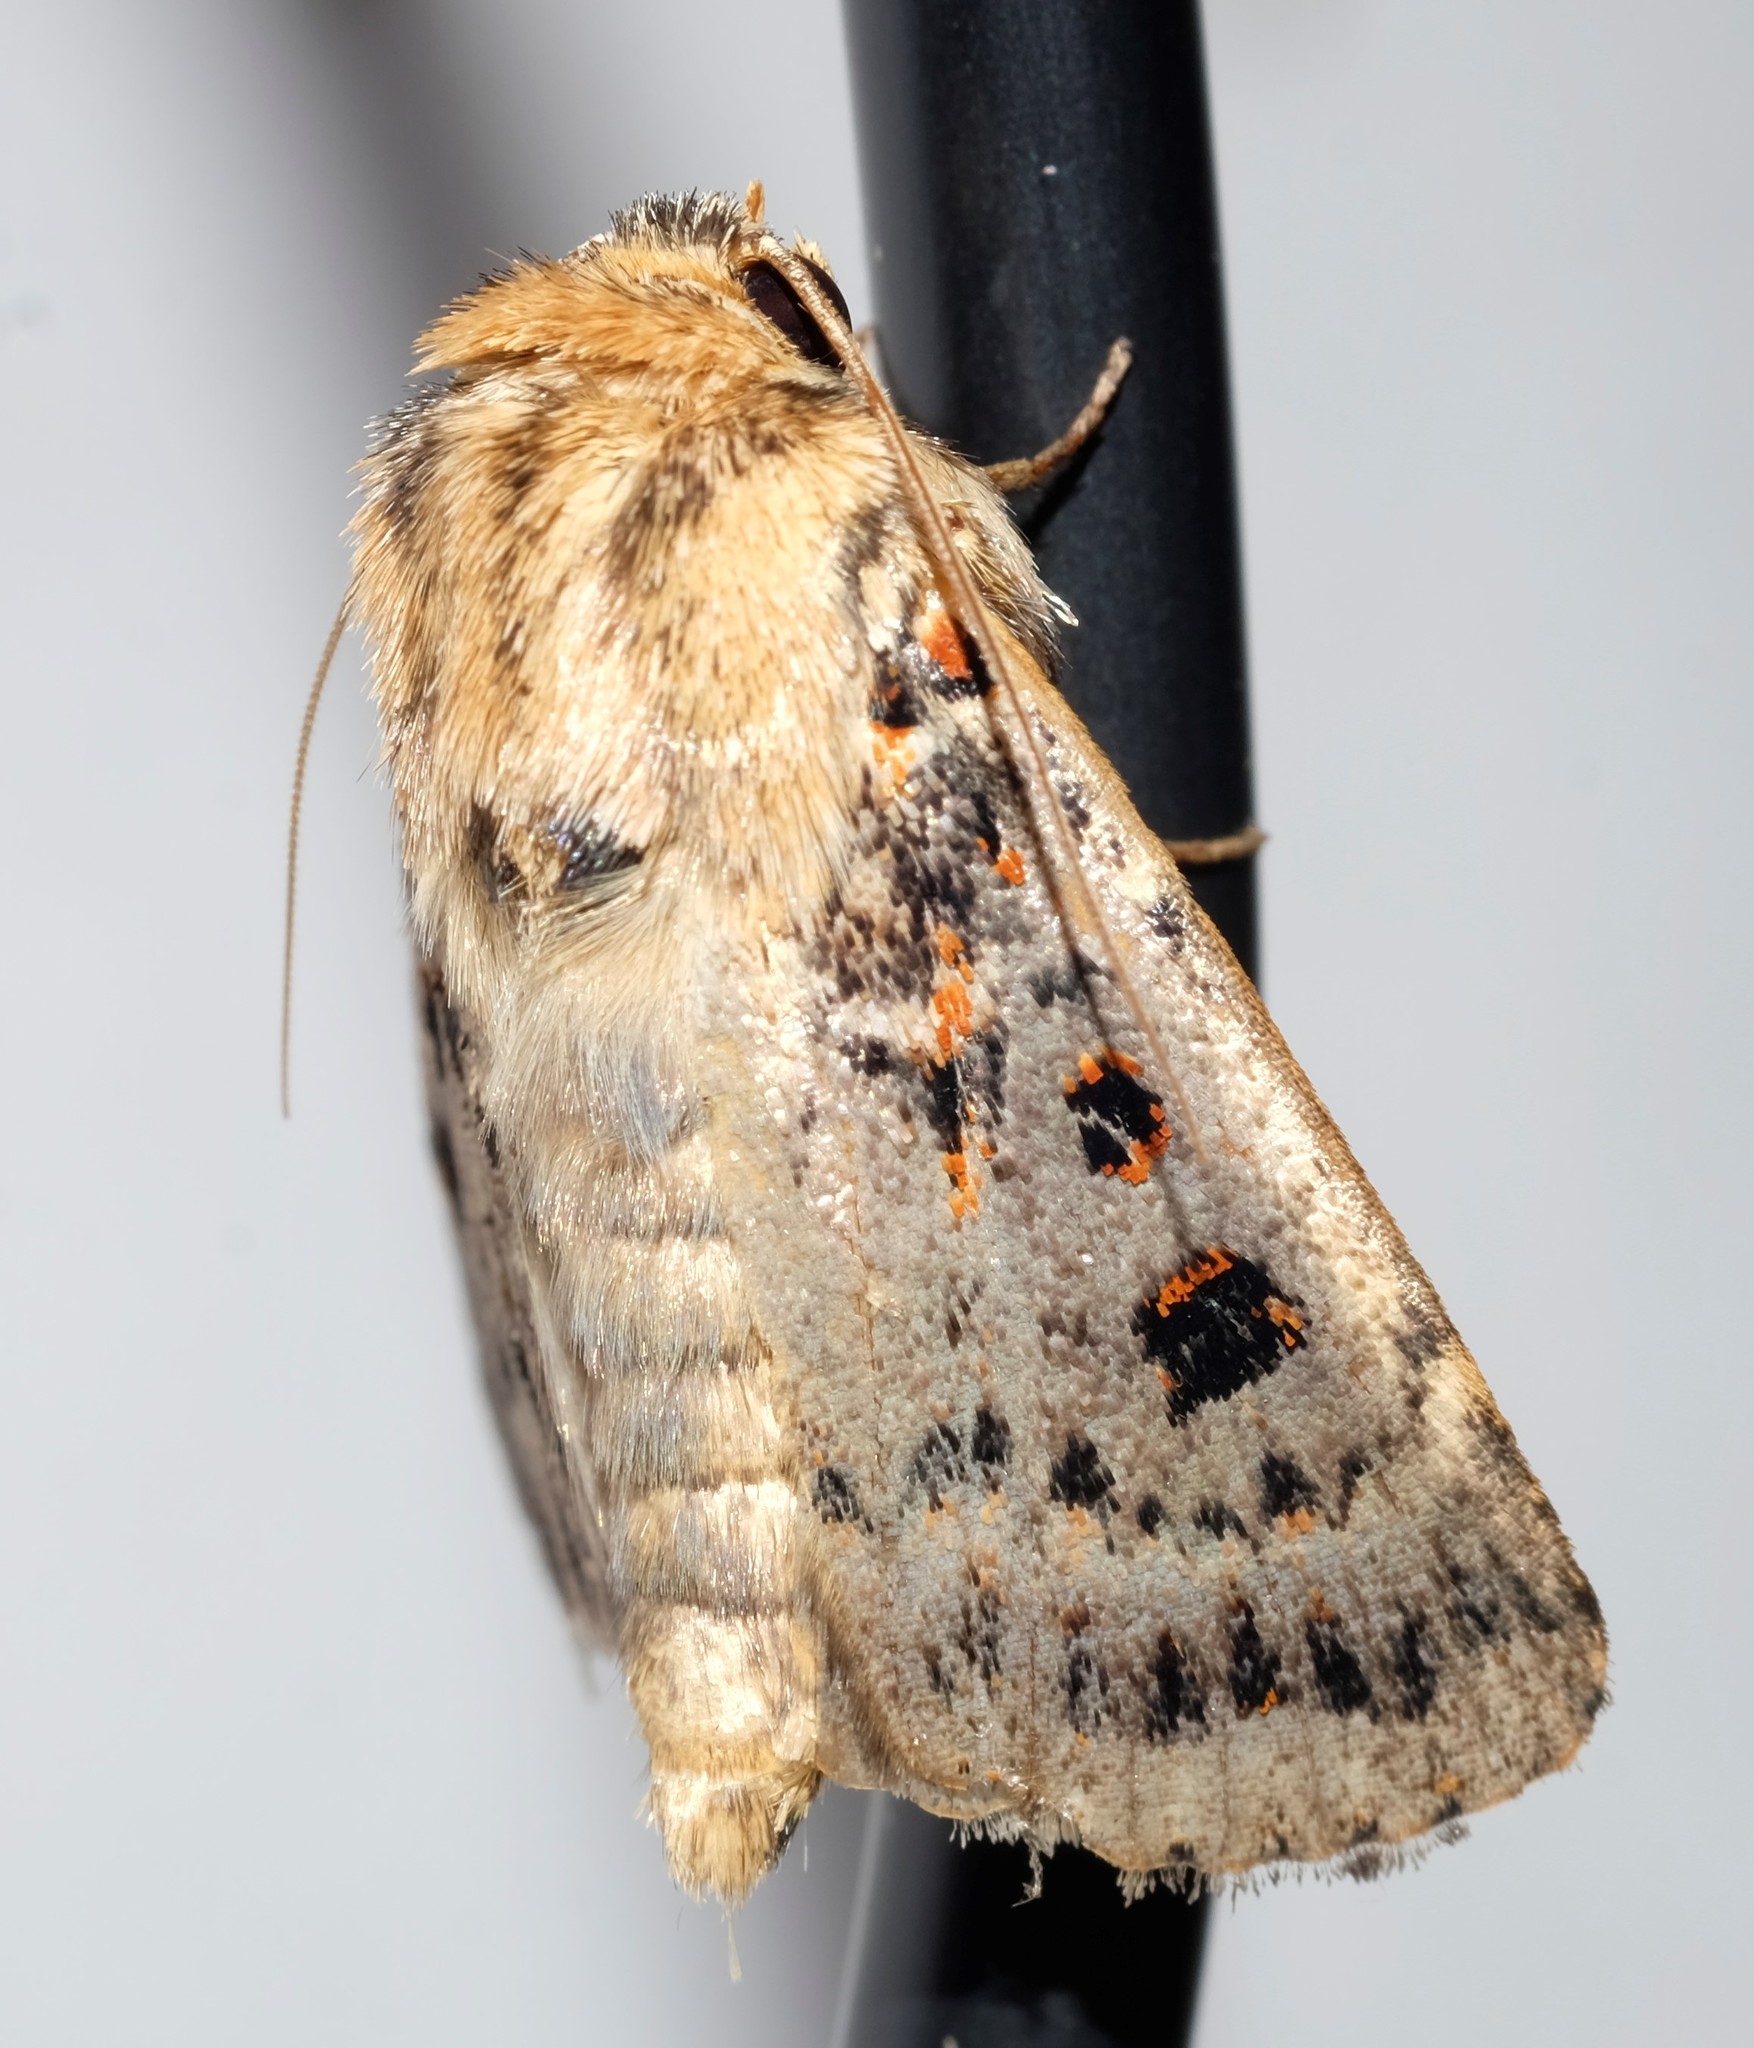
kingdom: Animalia
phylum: Arthropoda
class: Insecta
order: Lepidoptera
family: Noctuidae
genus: Proteuxoa
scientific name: Proteuxoa sanguinipuncta
